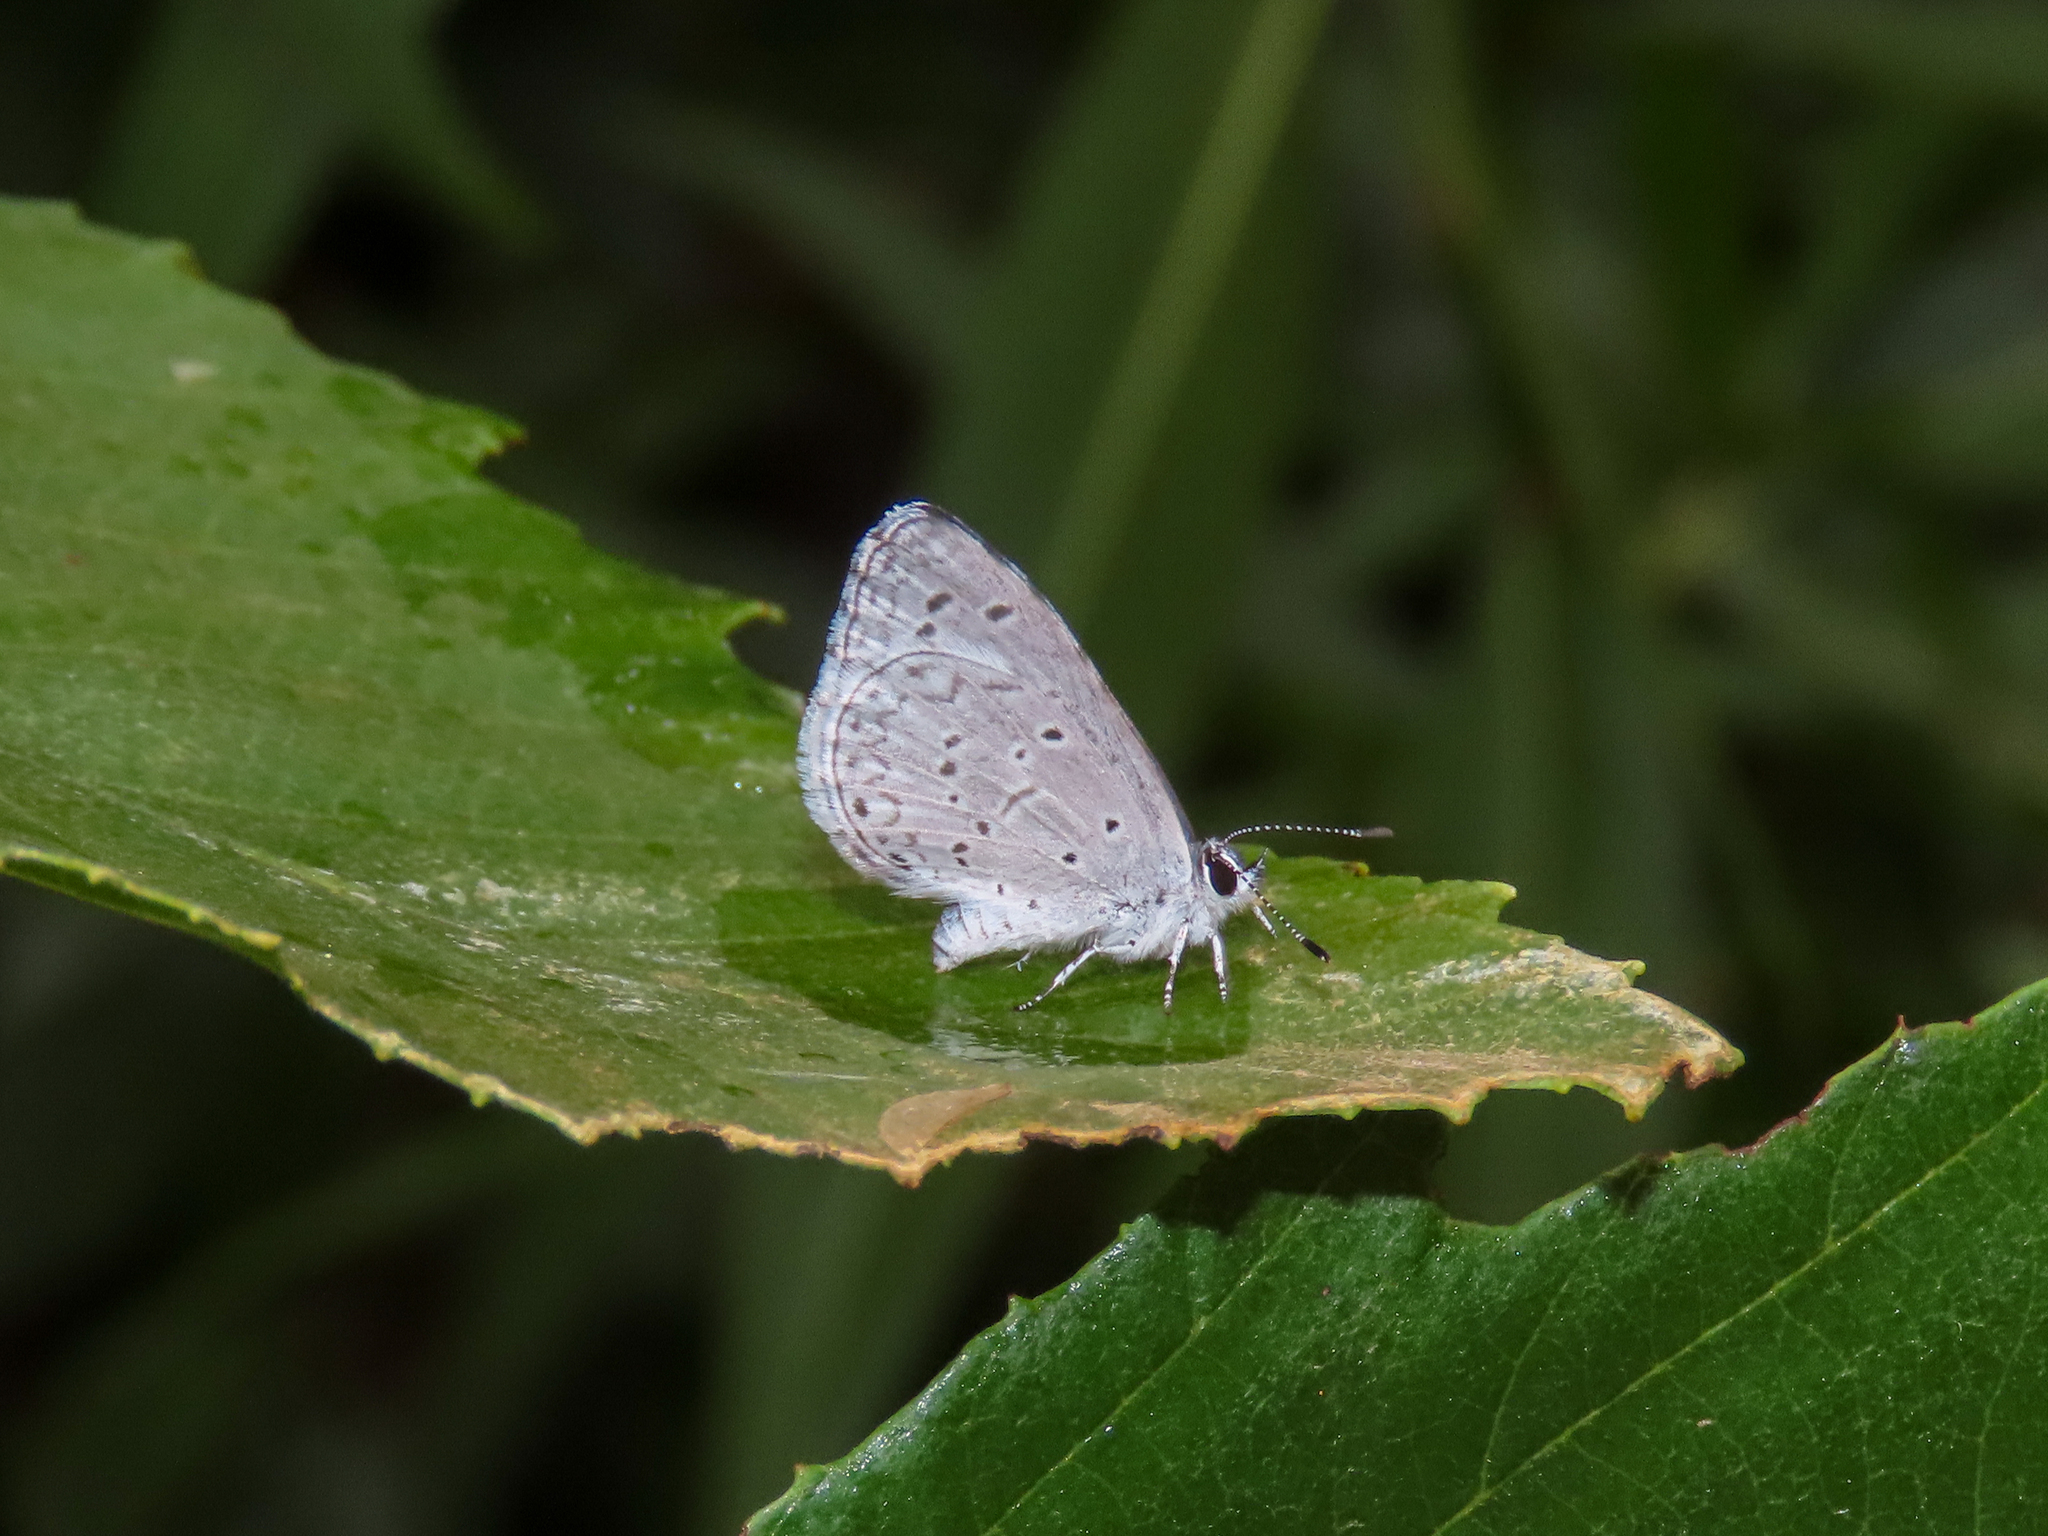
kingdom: Animalia
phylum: Arthropoda
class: Insecta
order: Lepidoptera
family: Lycaenidae
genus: Celastrina
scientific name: Celastrina ladon
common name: Spring azure
